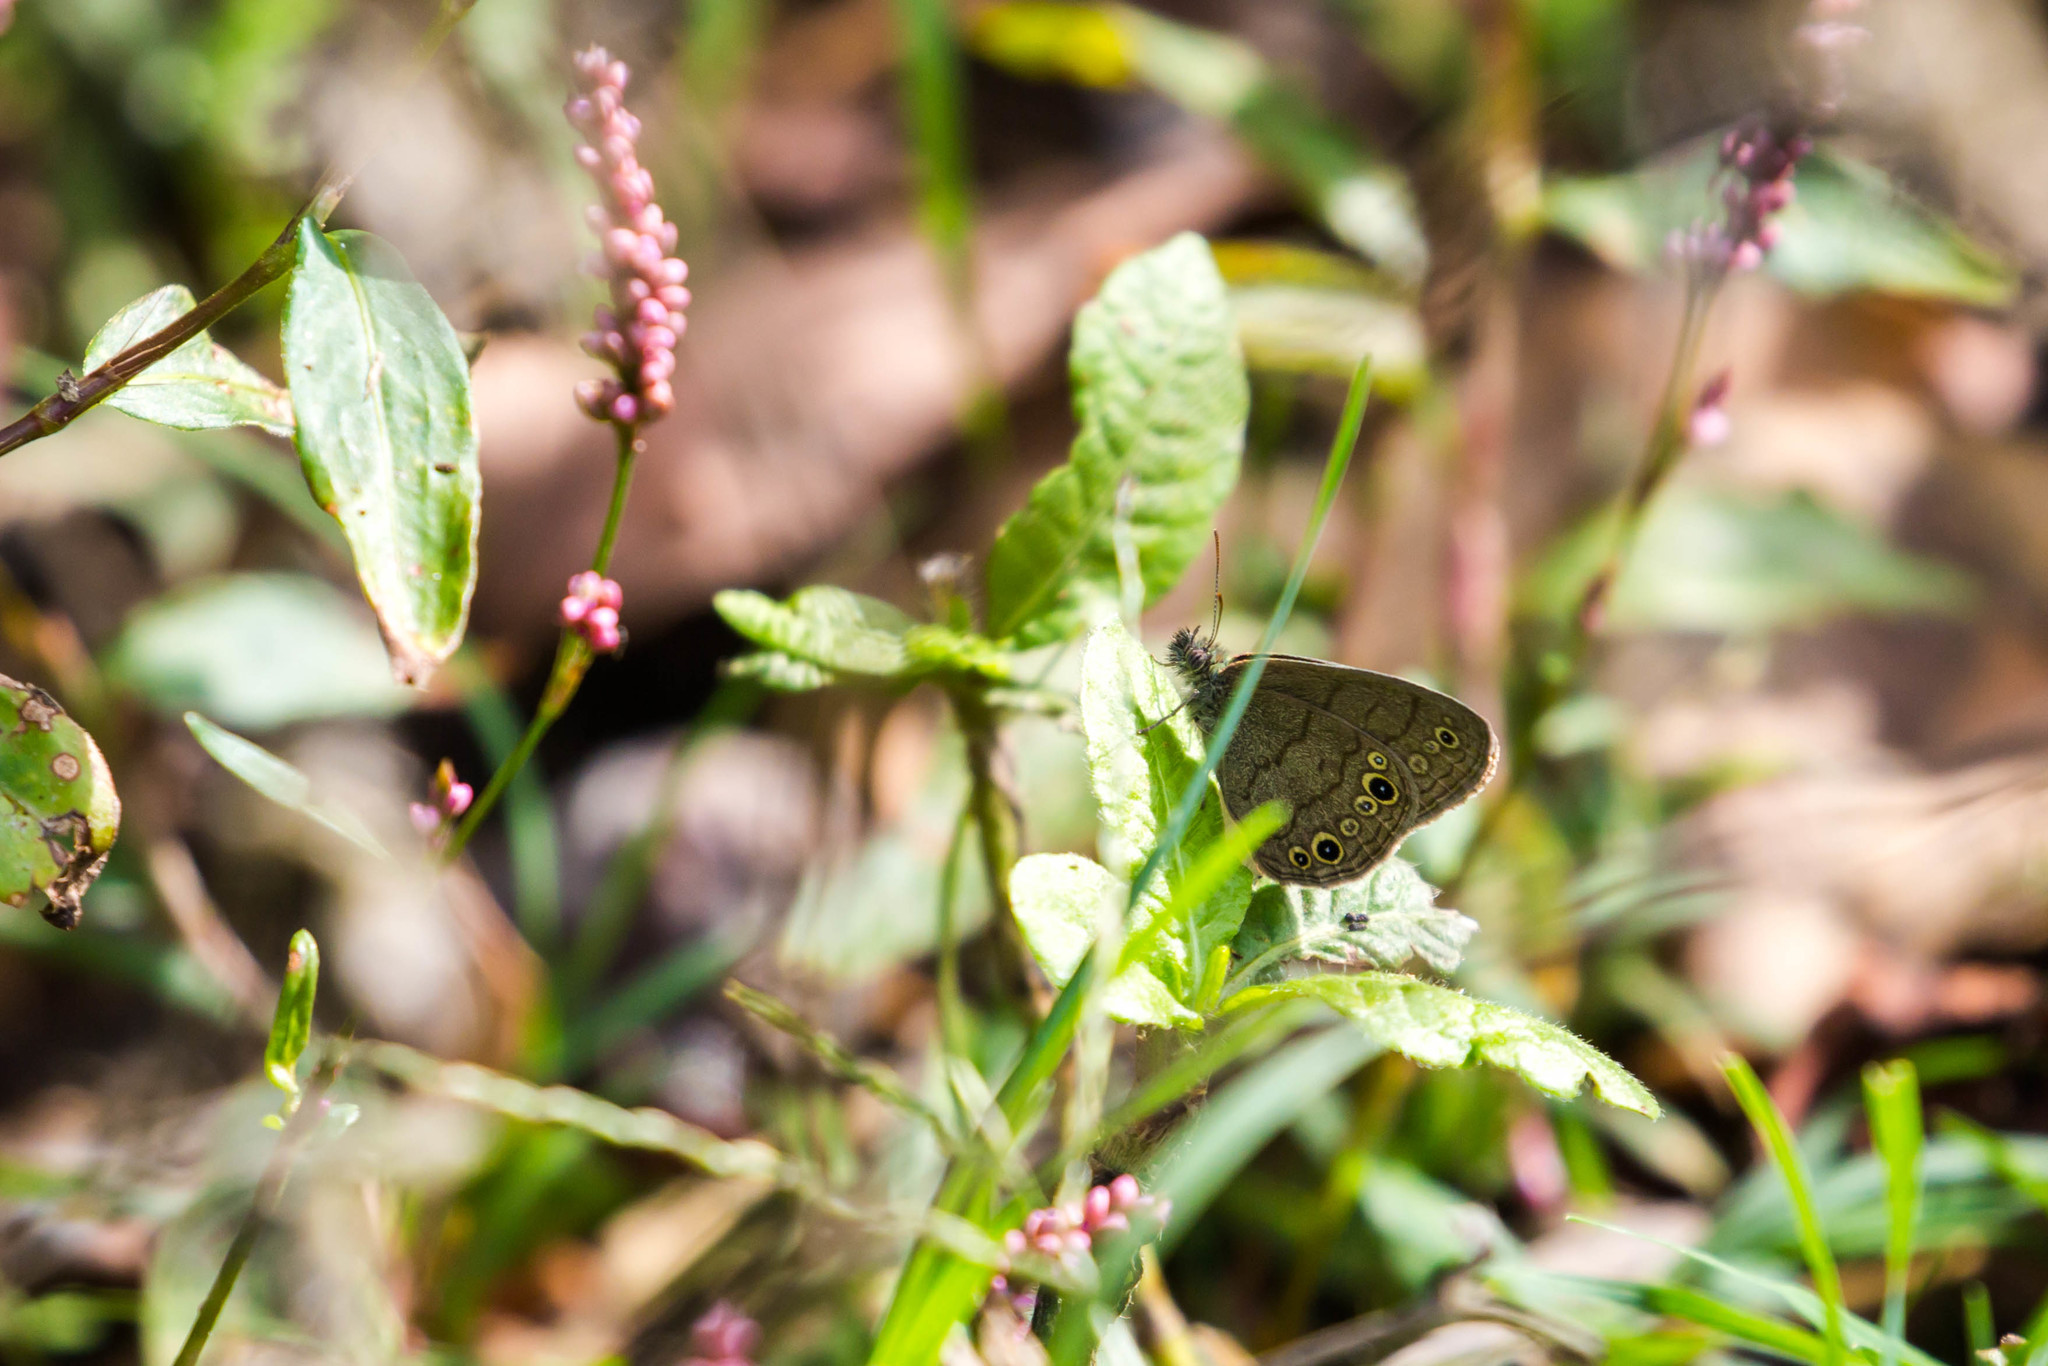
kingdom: Animalia
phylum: Arthropoda
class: Insecta
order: Lepidoptera
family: Nymphalidae
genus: Hermeuptychia
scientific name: Hermeuptychia hermes
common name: Hermes satyr
